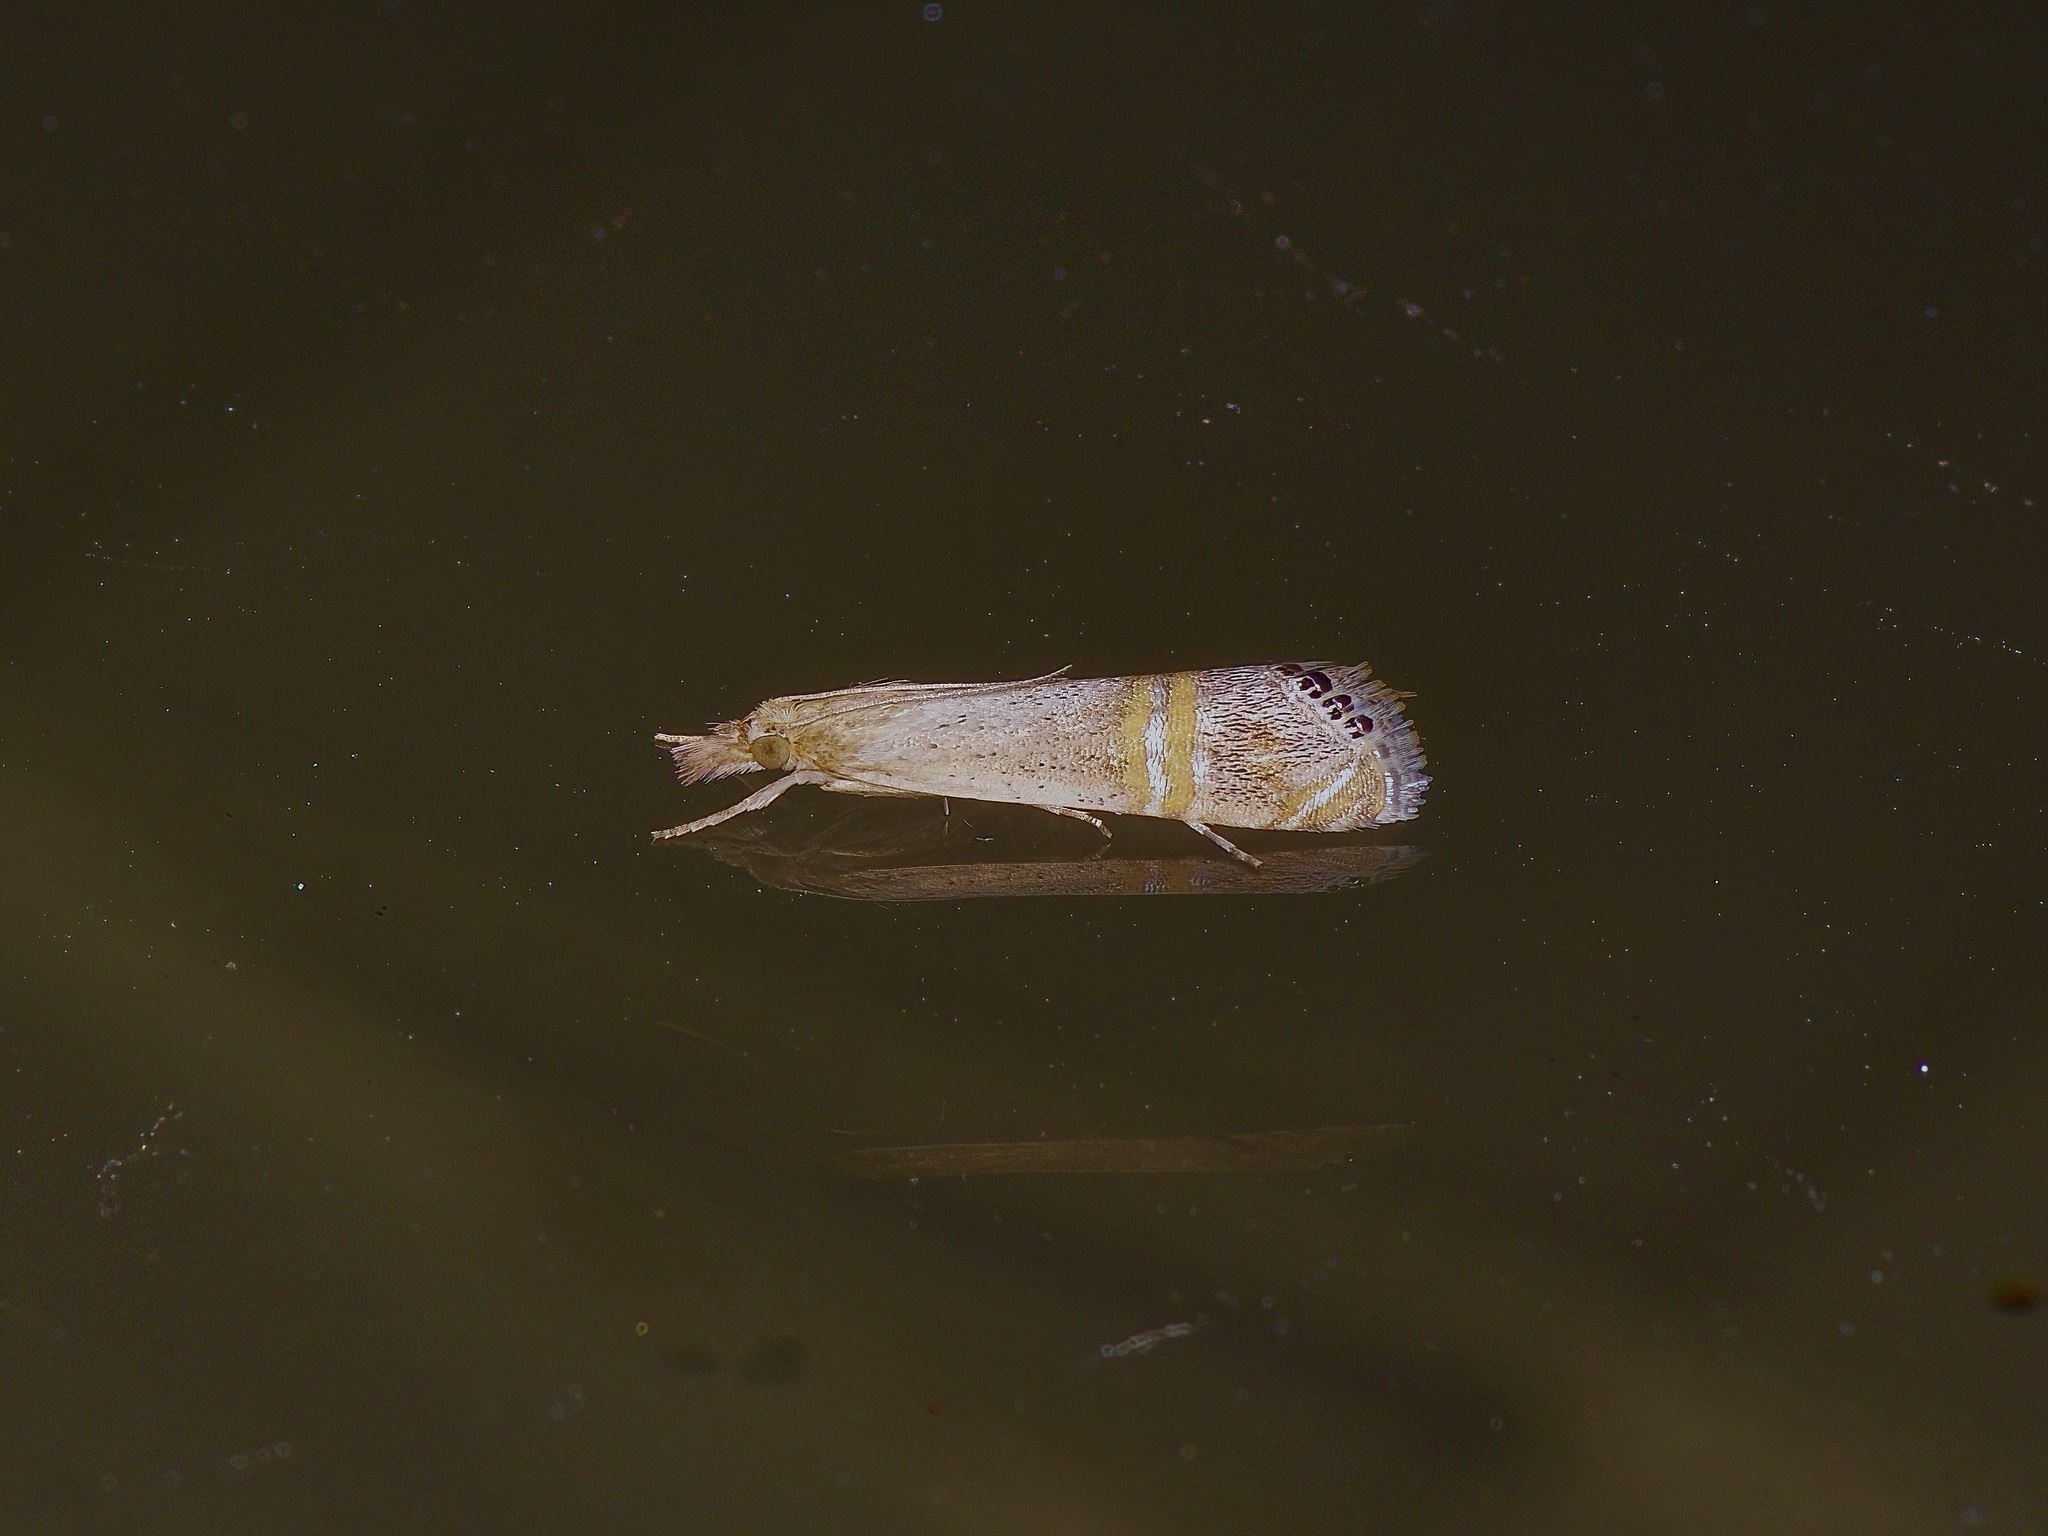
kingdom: Animalia
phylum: Arthropoda
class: Insecta
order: Lepidoptera
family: Crambidae
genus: Euchromius
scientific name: Euchromius ocellea
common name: Necklace veneer moth
